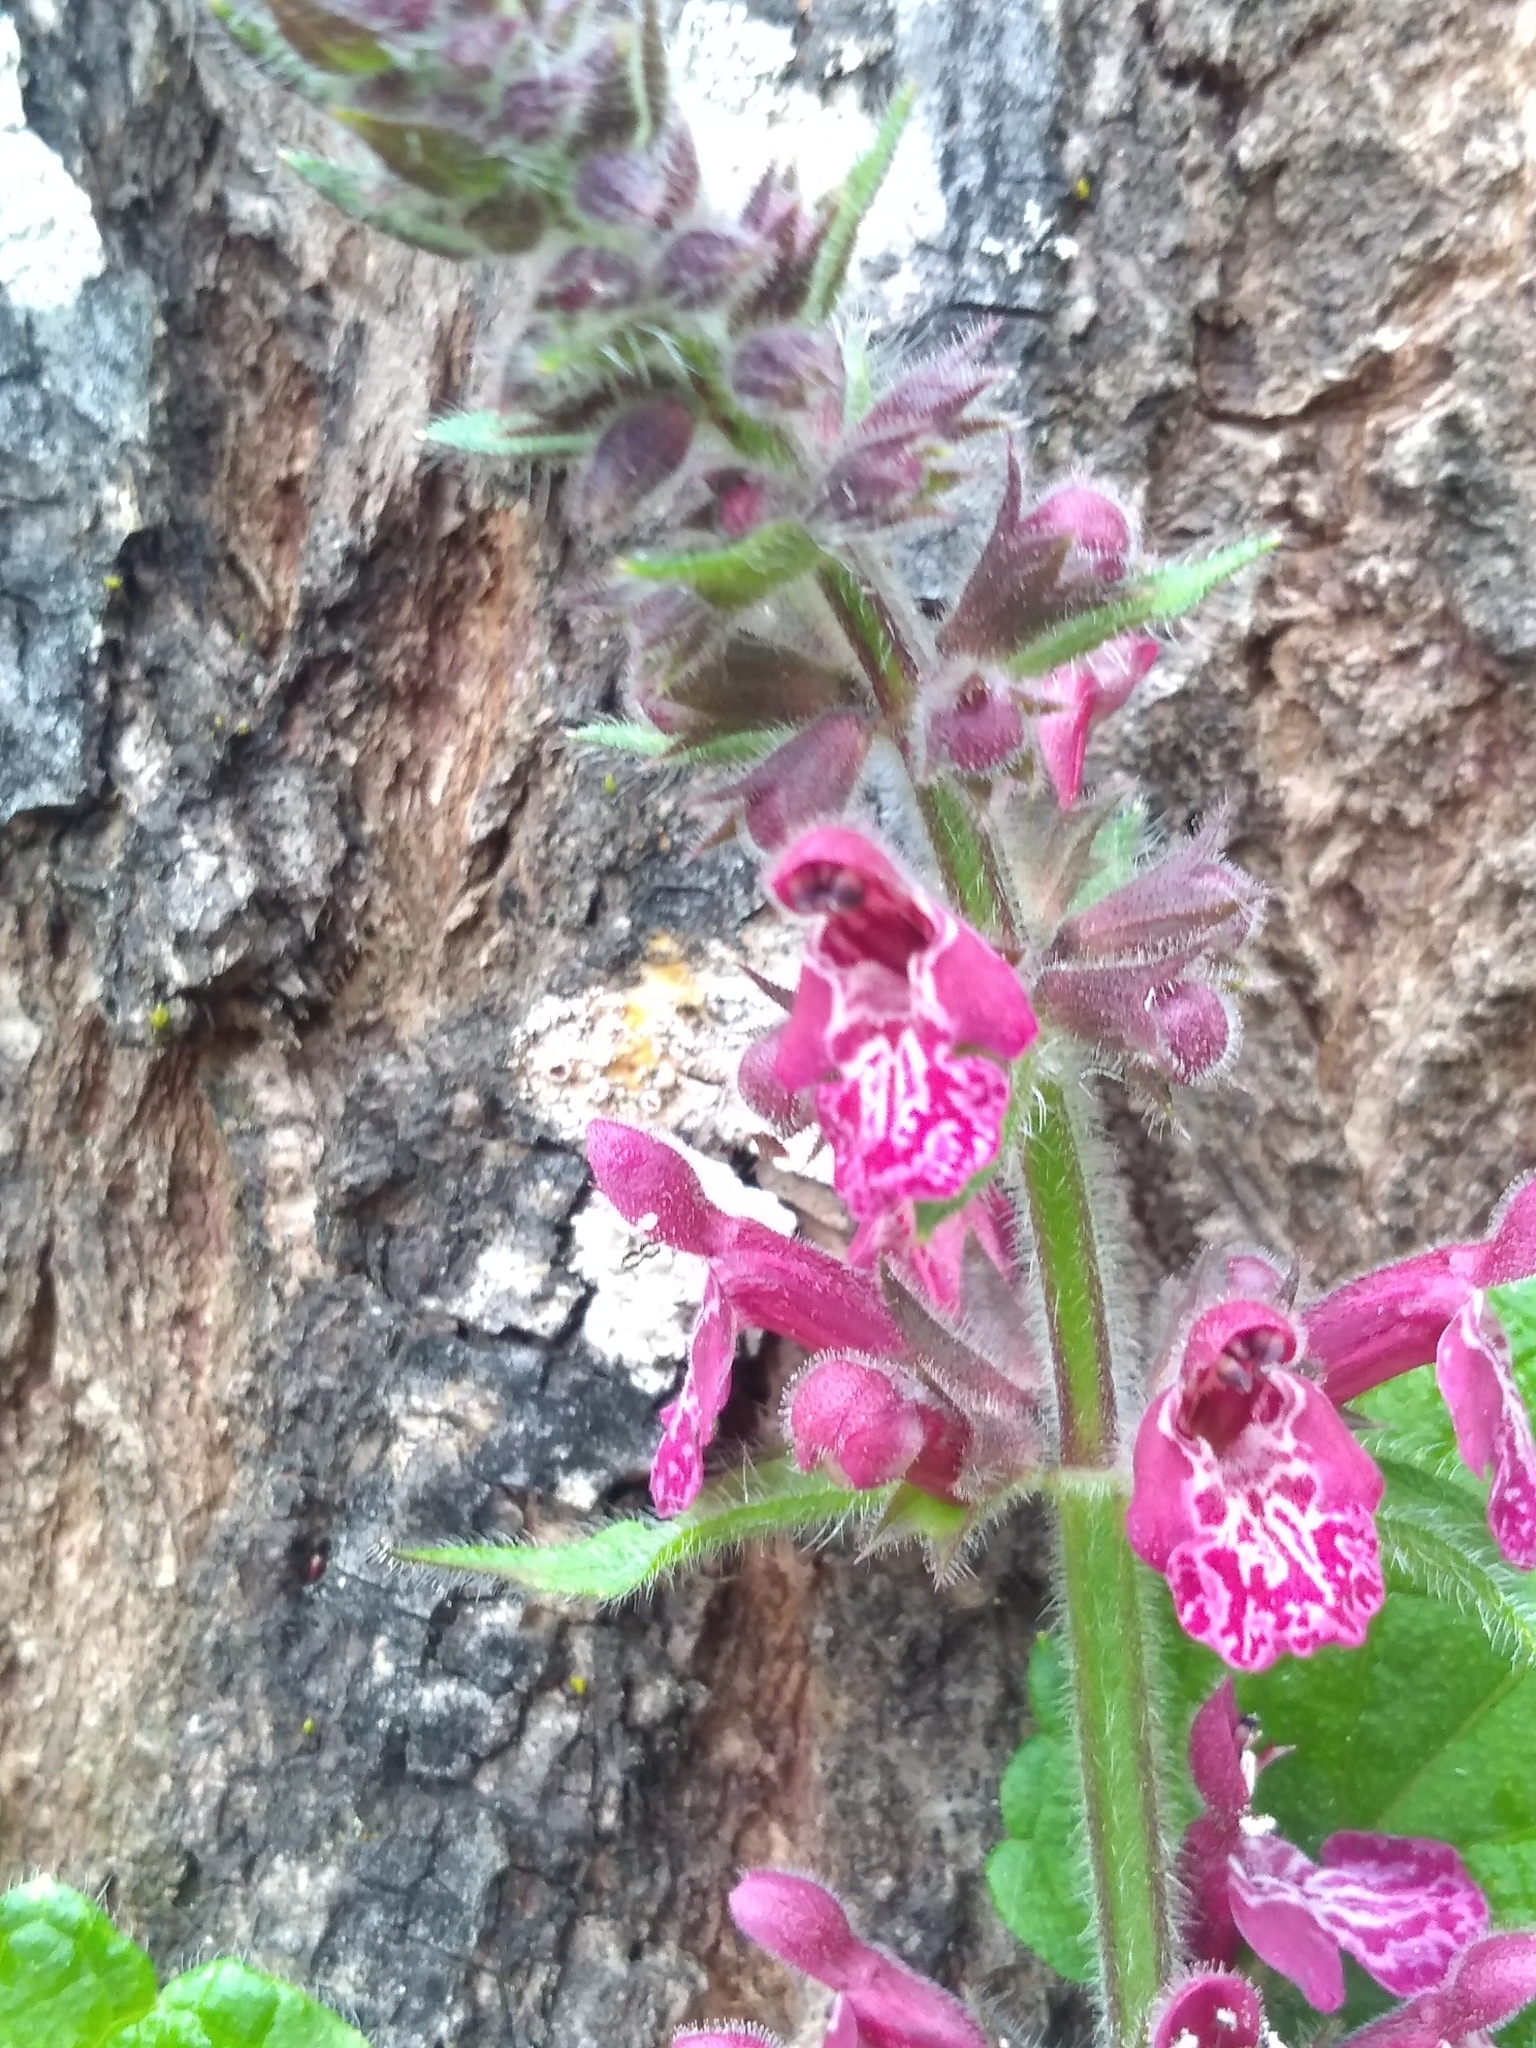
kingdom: Plantae
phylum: Tracheophyta
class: Magnoliopsida
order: Lamiales
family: Lamiaceae
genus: Stachys
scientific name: Stachys sylvatica
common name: Hedge woundwort
